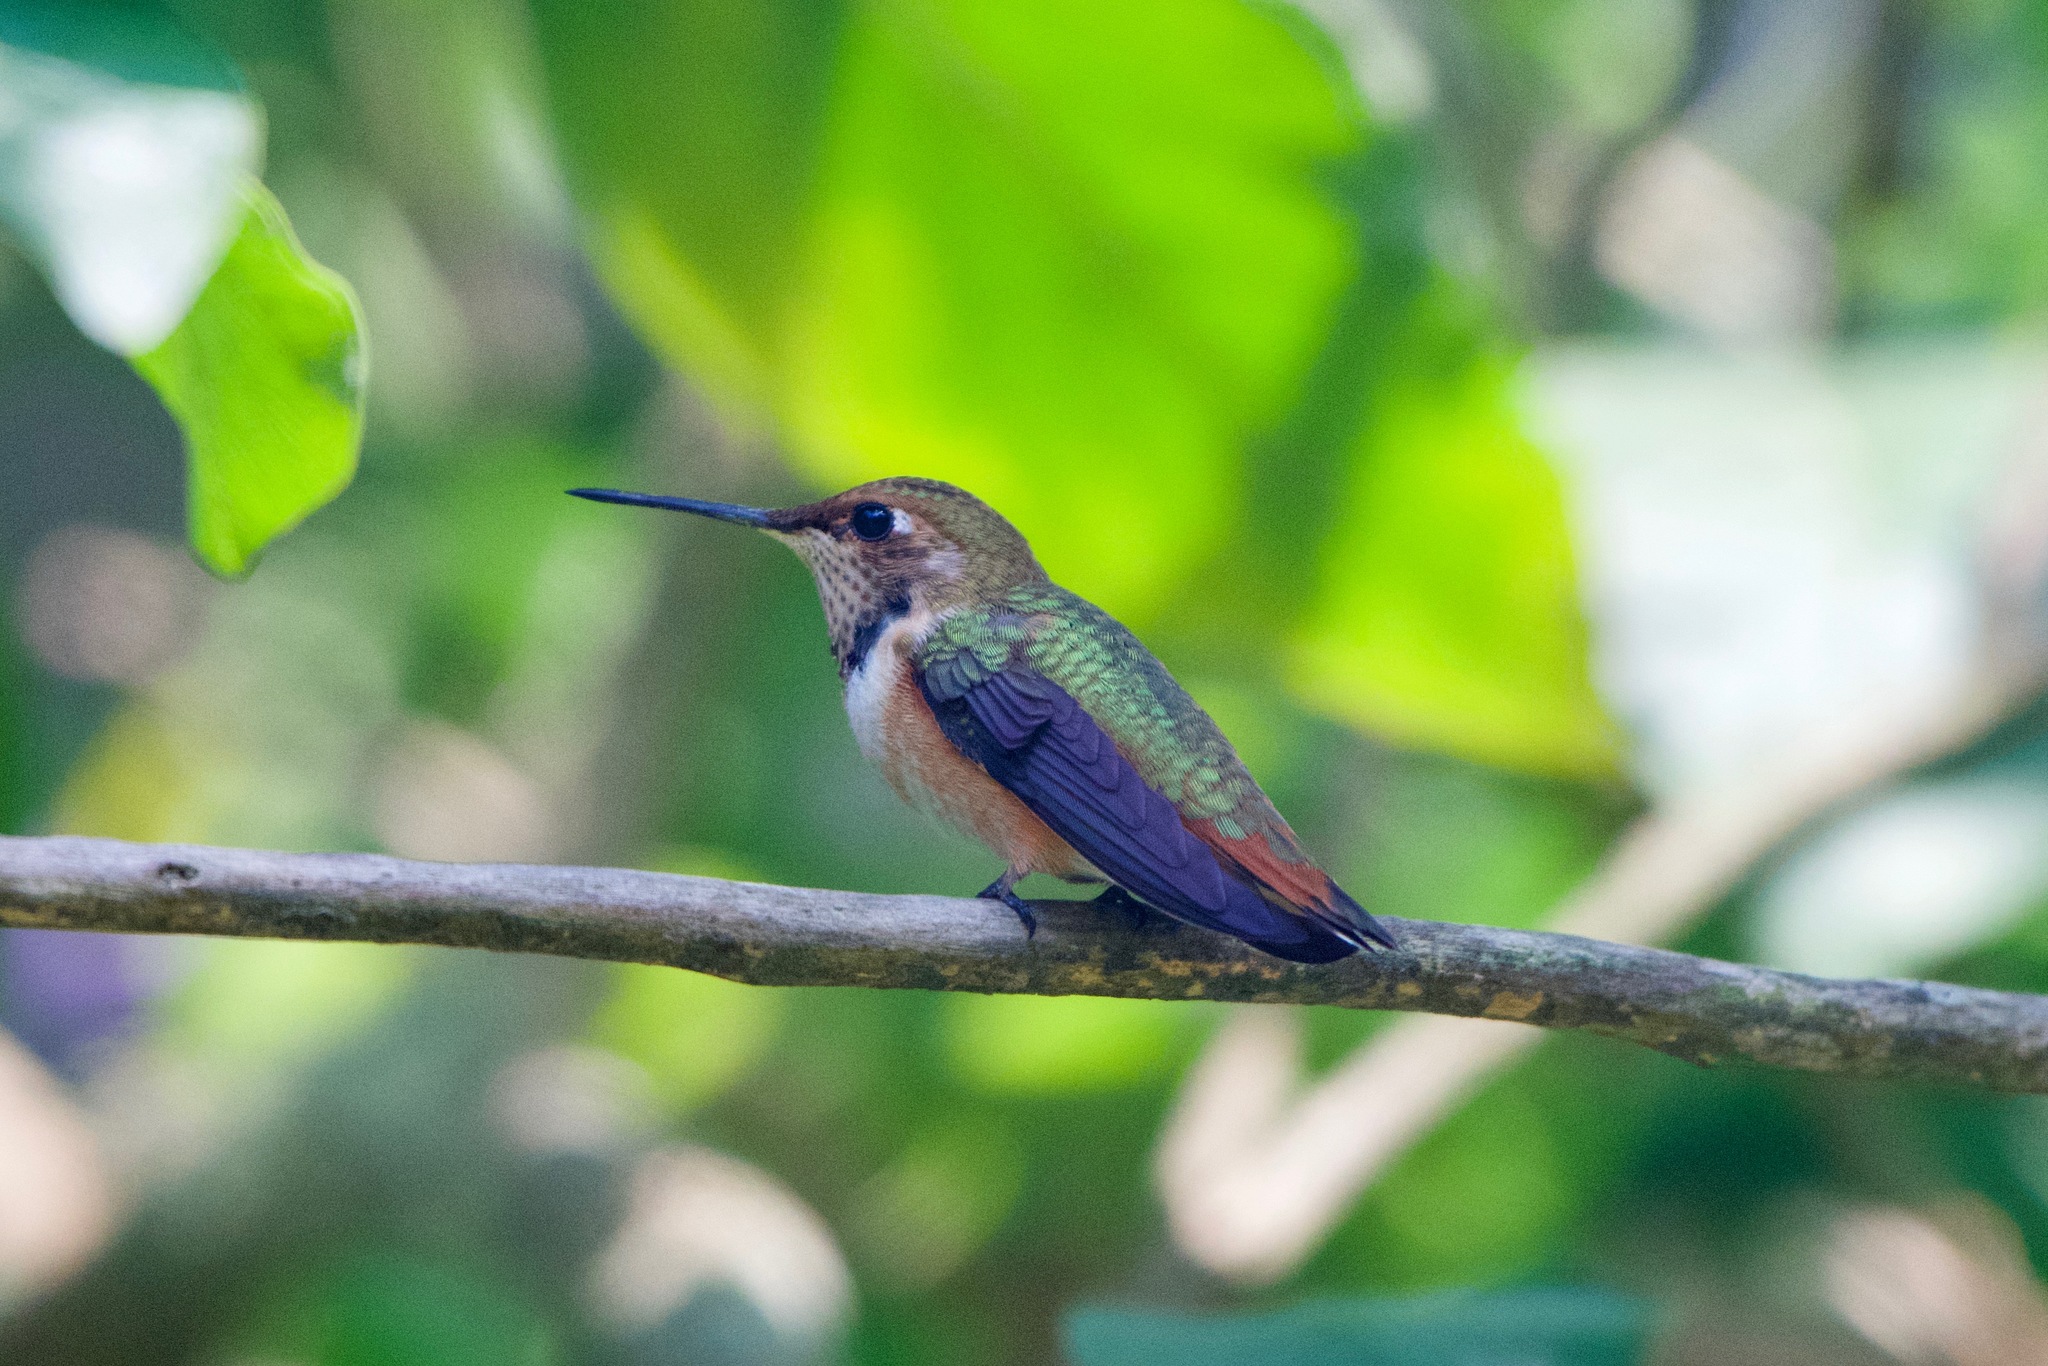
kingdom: Animalia
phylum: Chordata
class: Aves
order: Apodiformes
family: Trochilidae
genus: Selasphorus
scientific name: Selasphorus
